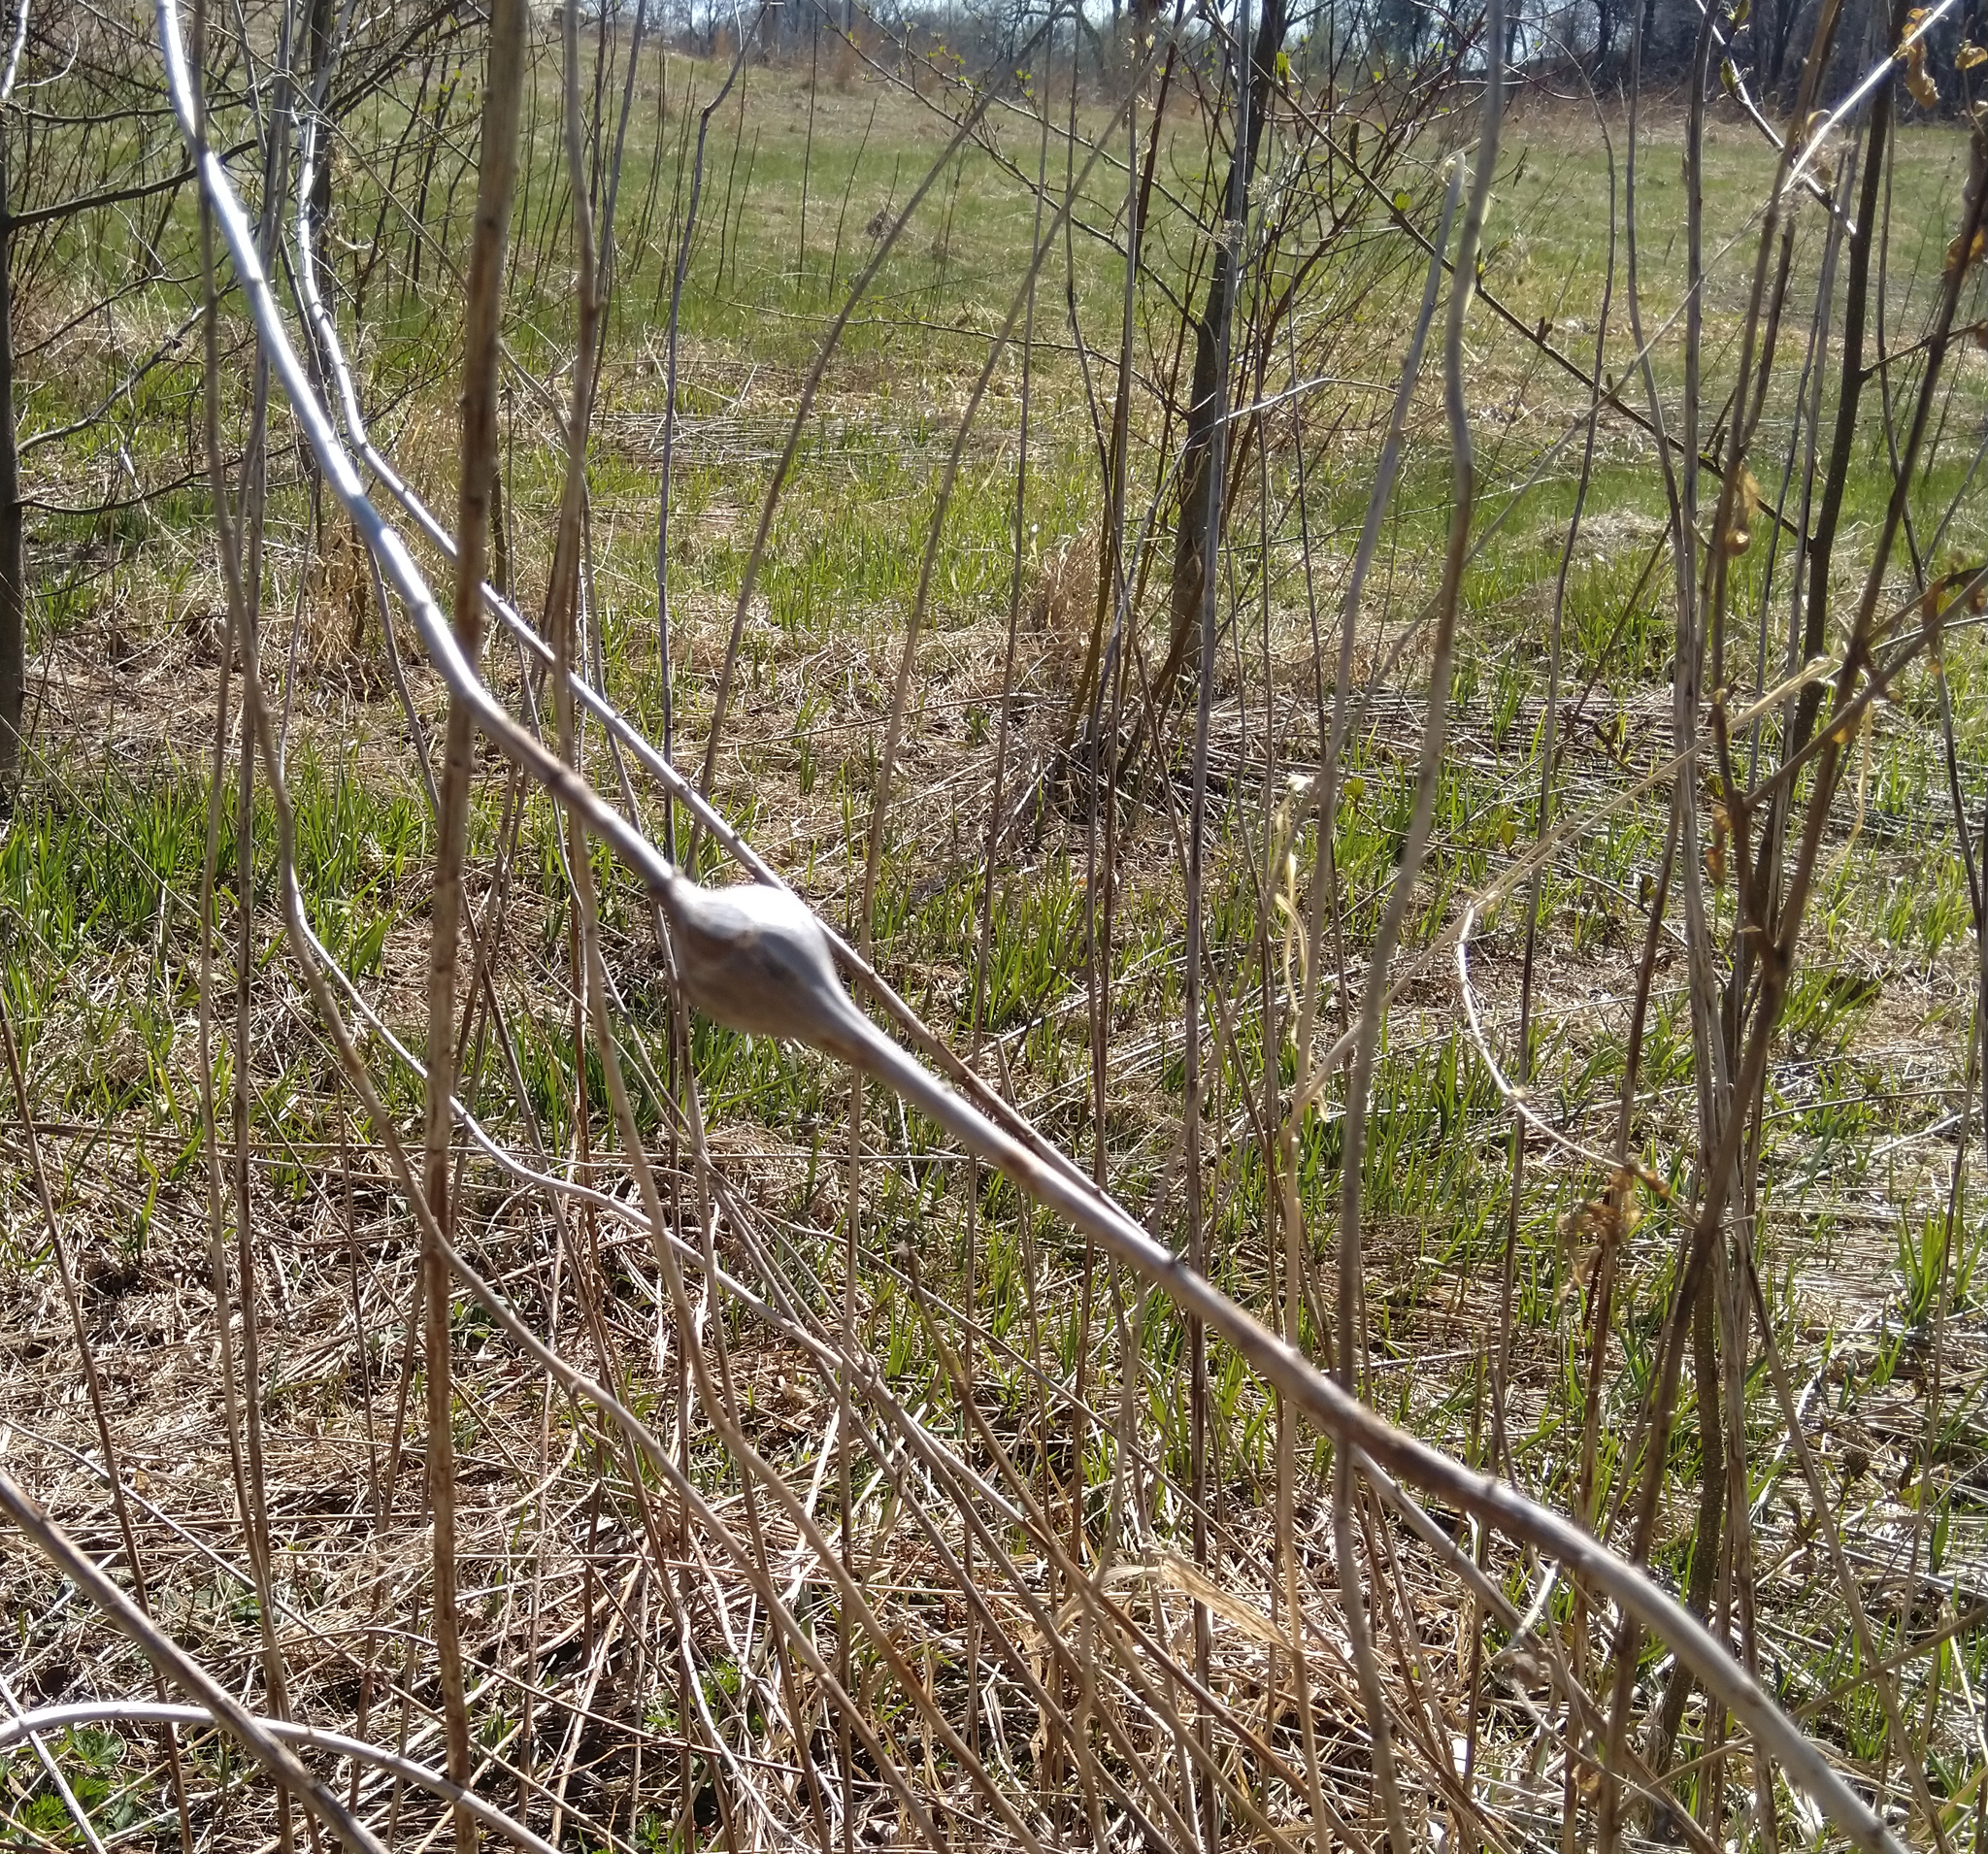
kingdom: Animalia
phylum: Arthropoda
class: Insecta
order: Diptera
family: Tephritidae
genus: Eurosta
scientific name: Eurosta solidaginis
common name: Goldenrod gall fly
